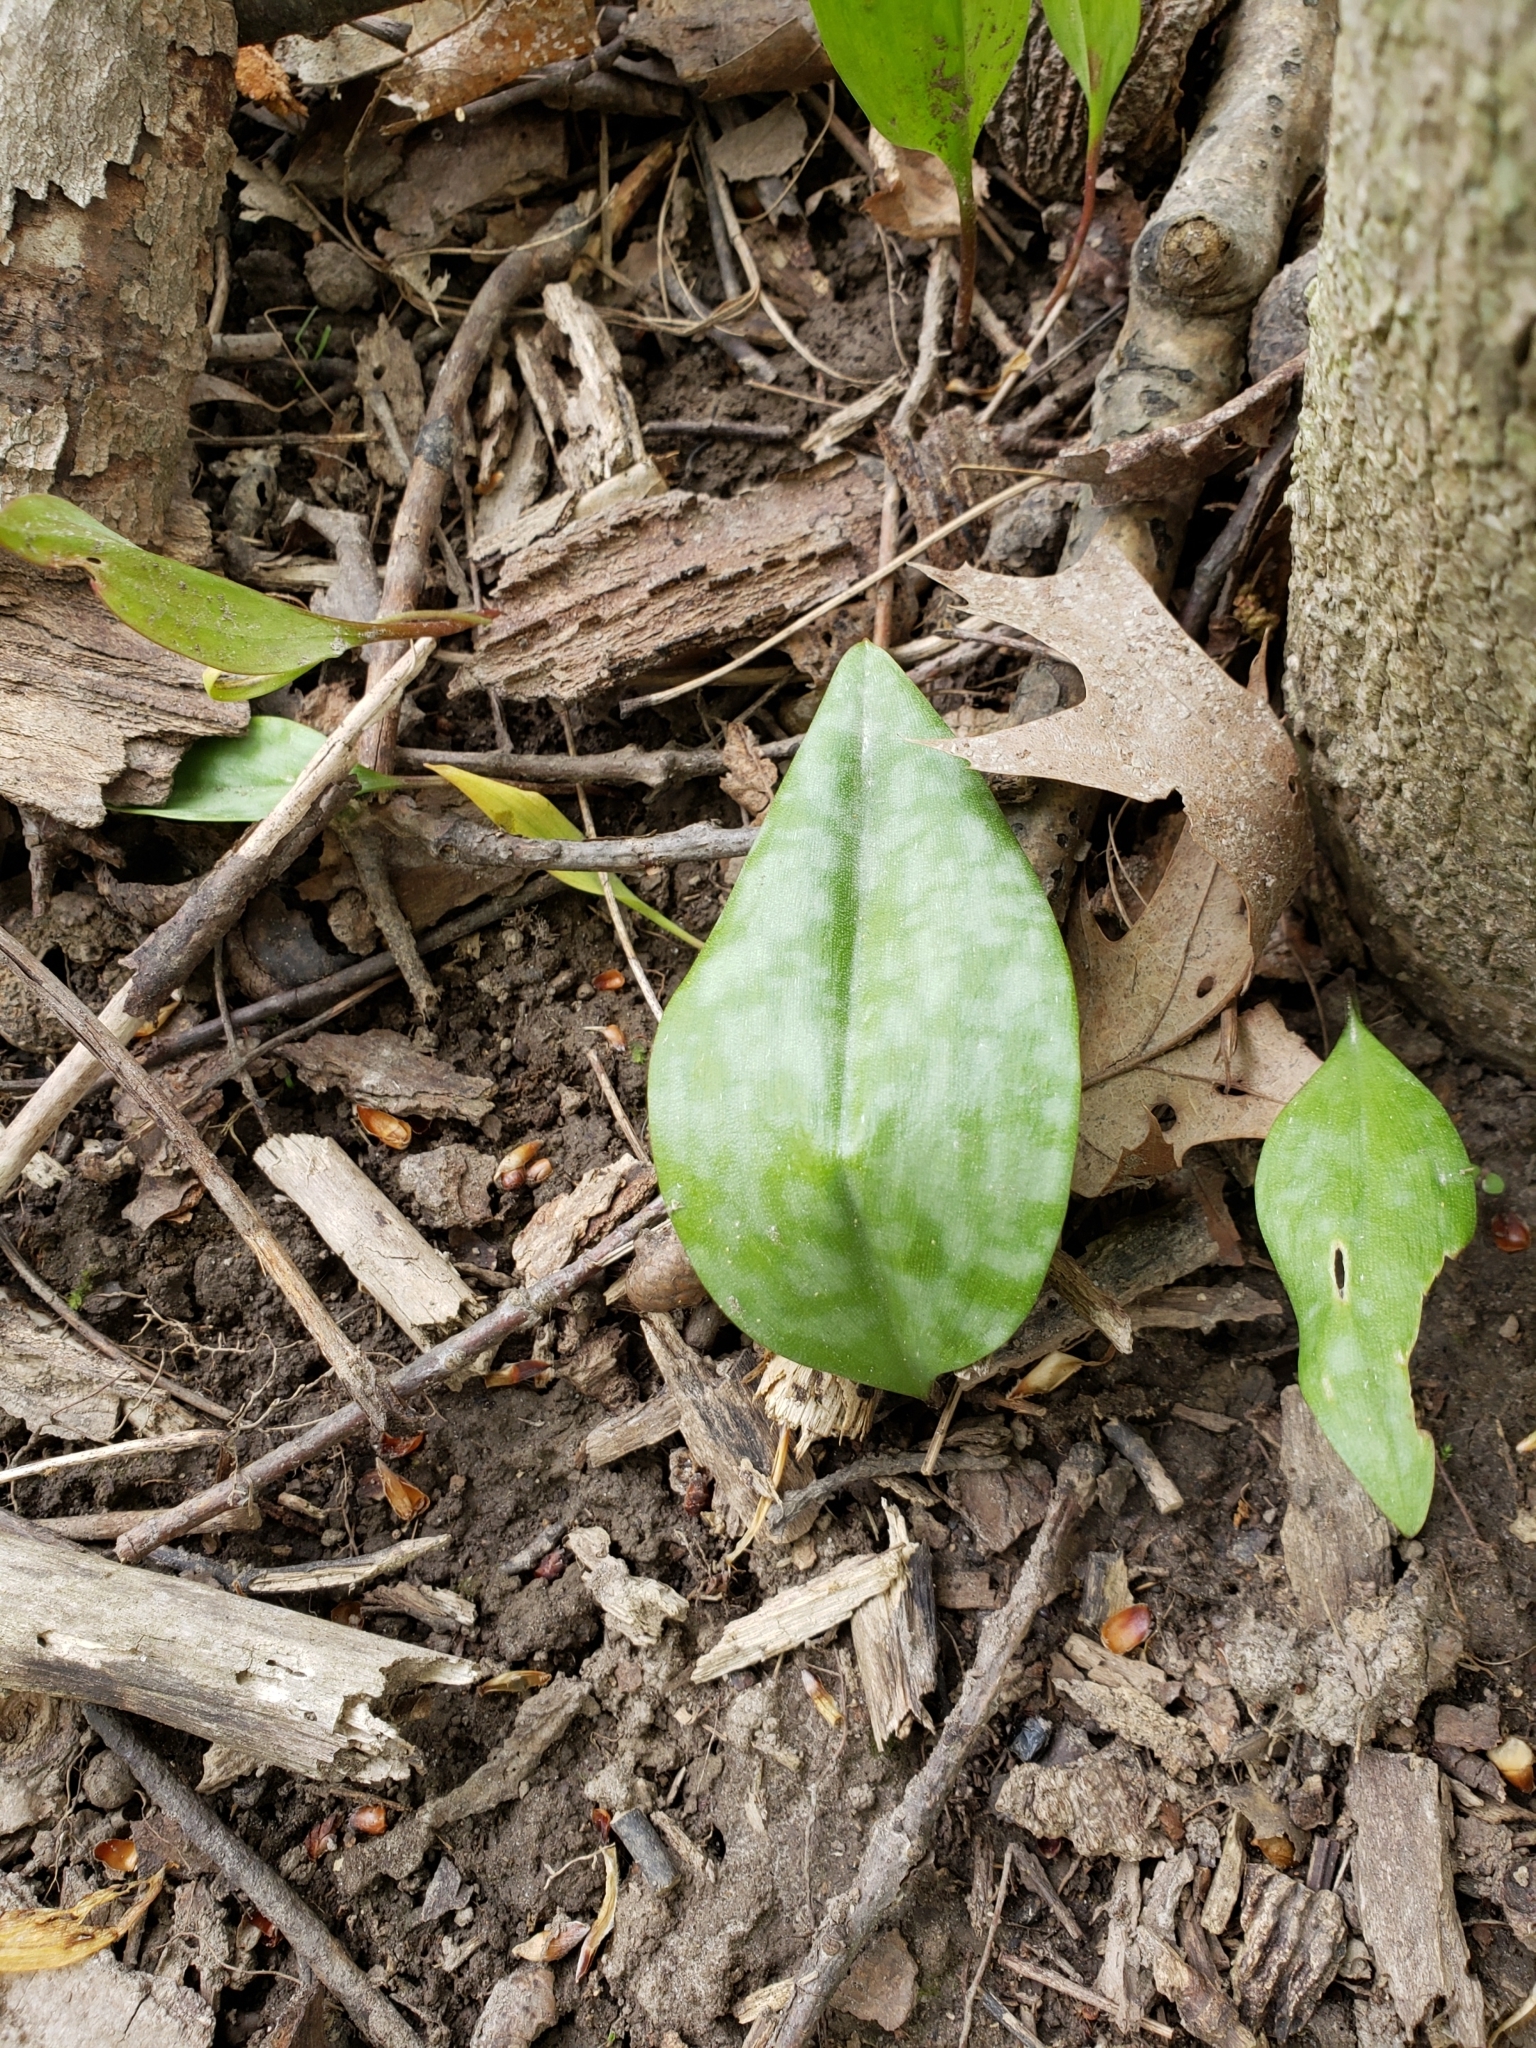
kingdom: Plantae
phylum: Tracheophyta
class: Liliopsida
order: Liliales
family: Liliaceae
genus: Erythronium
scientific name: Erythronium americanum
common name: Yellow adder's-tongue
